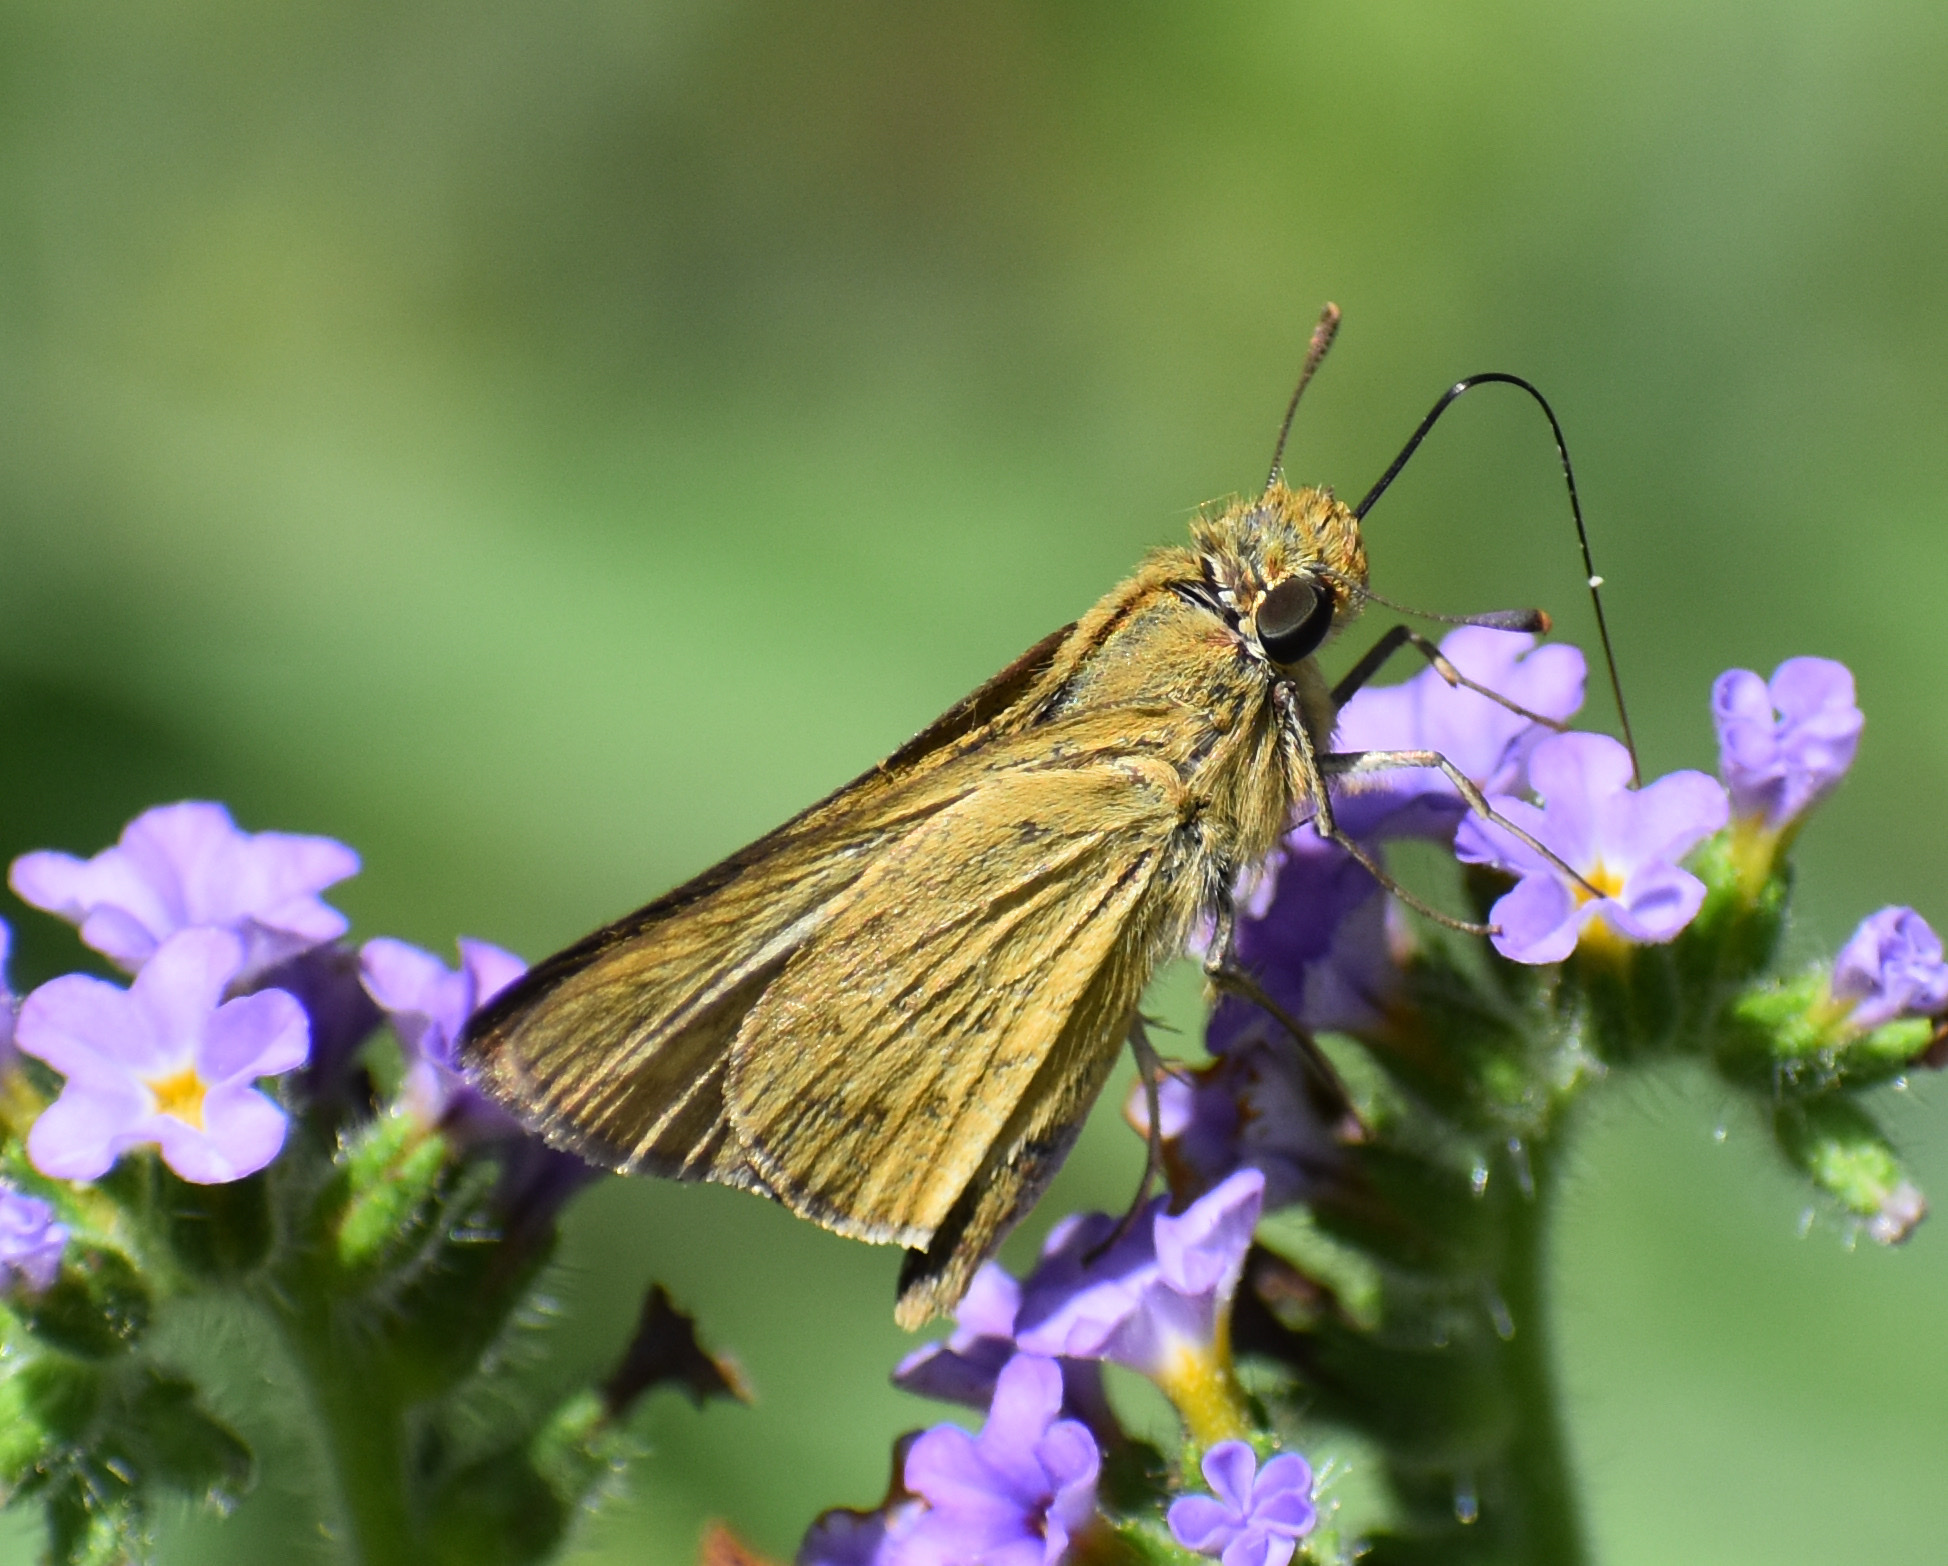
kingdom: Animalia
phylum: Arthropoda
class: Insecta
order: Hymenoptera
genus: Afrogenes
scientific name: Afrogenes
